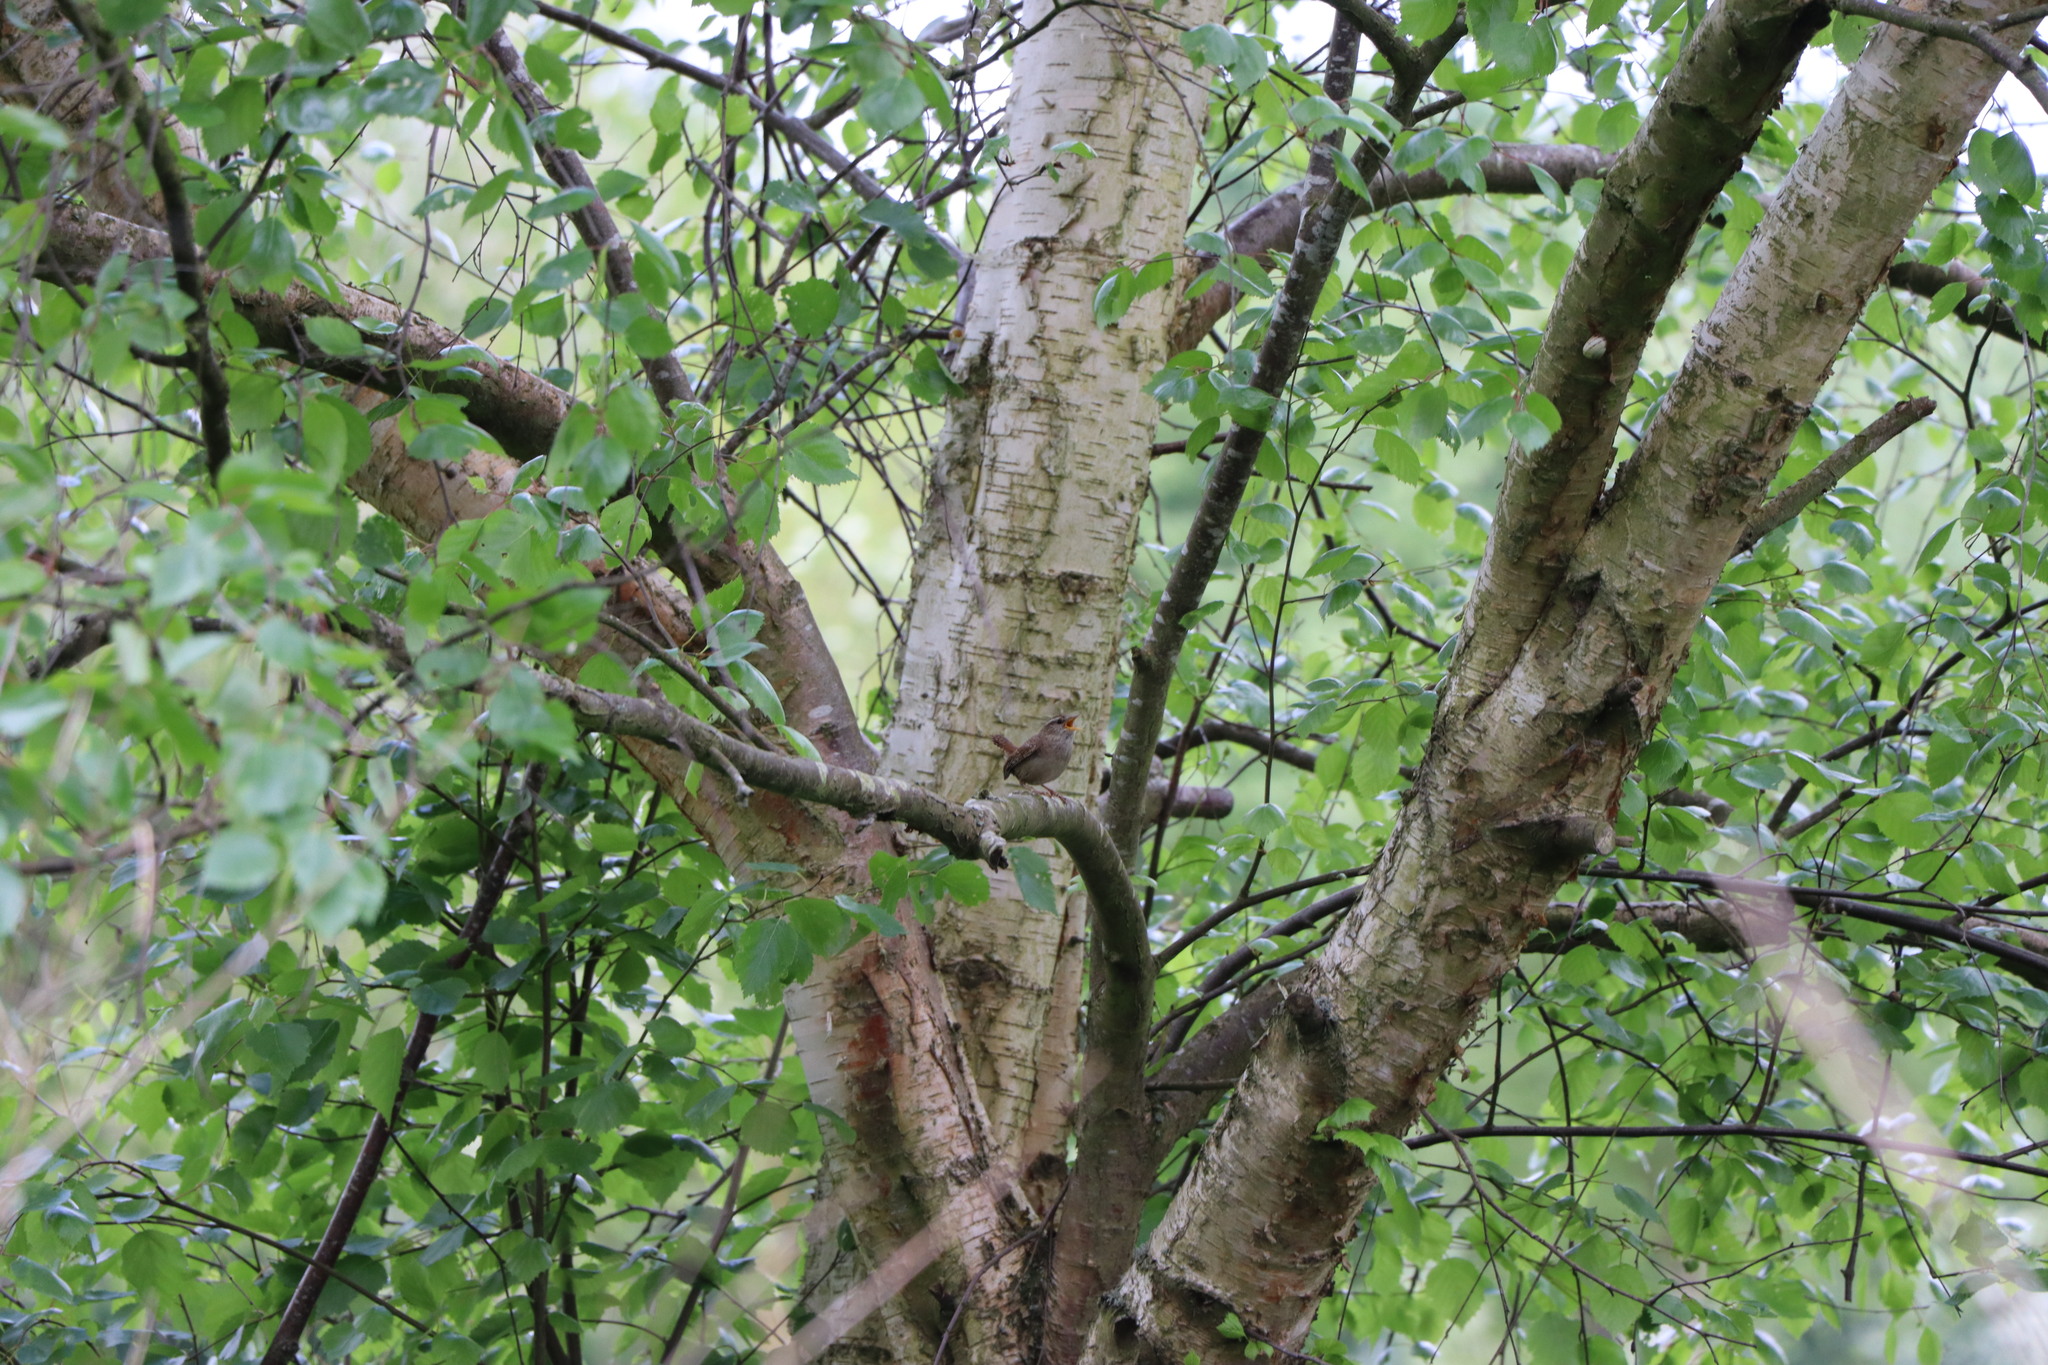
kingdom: Animalia
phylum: Chordata
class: Aves
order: Passeriformes
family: Troglodytidae
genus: Troglodytes
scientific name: Troglodytes troglodytes
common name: Eurasian wren
